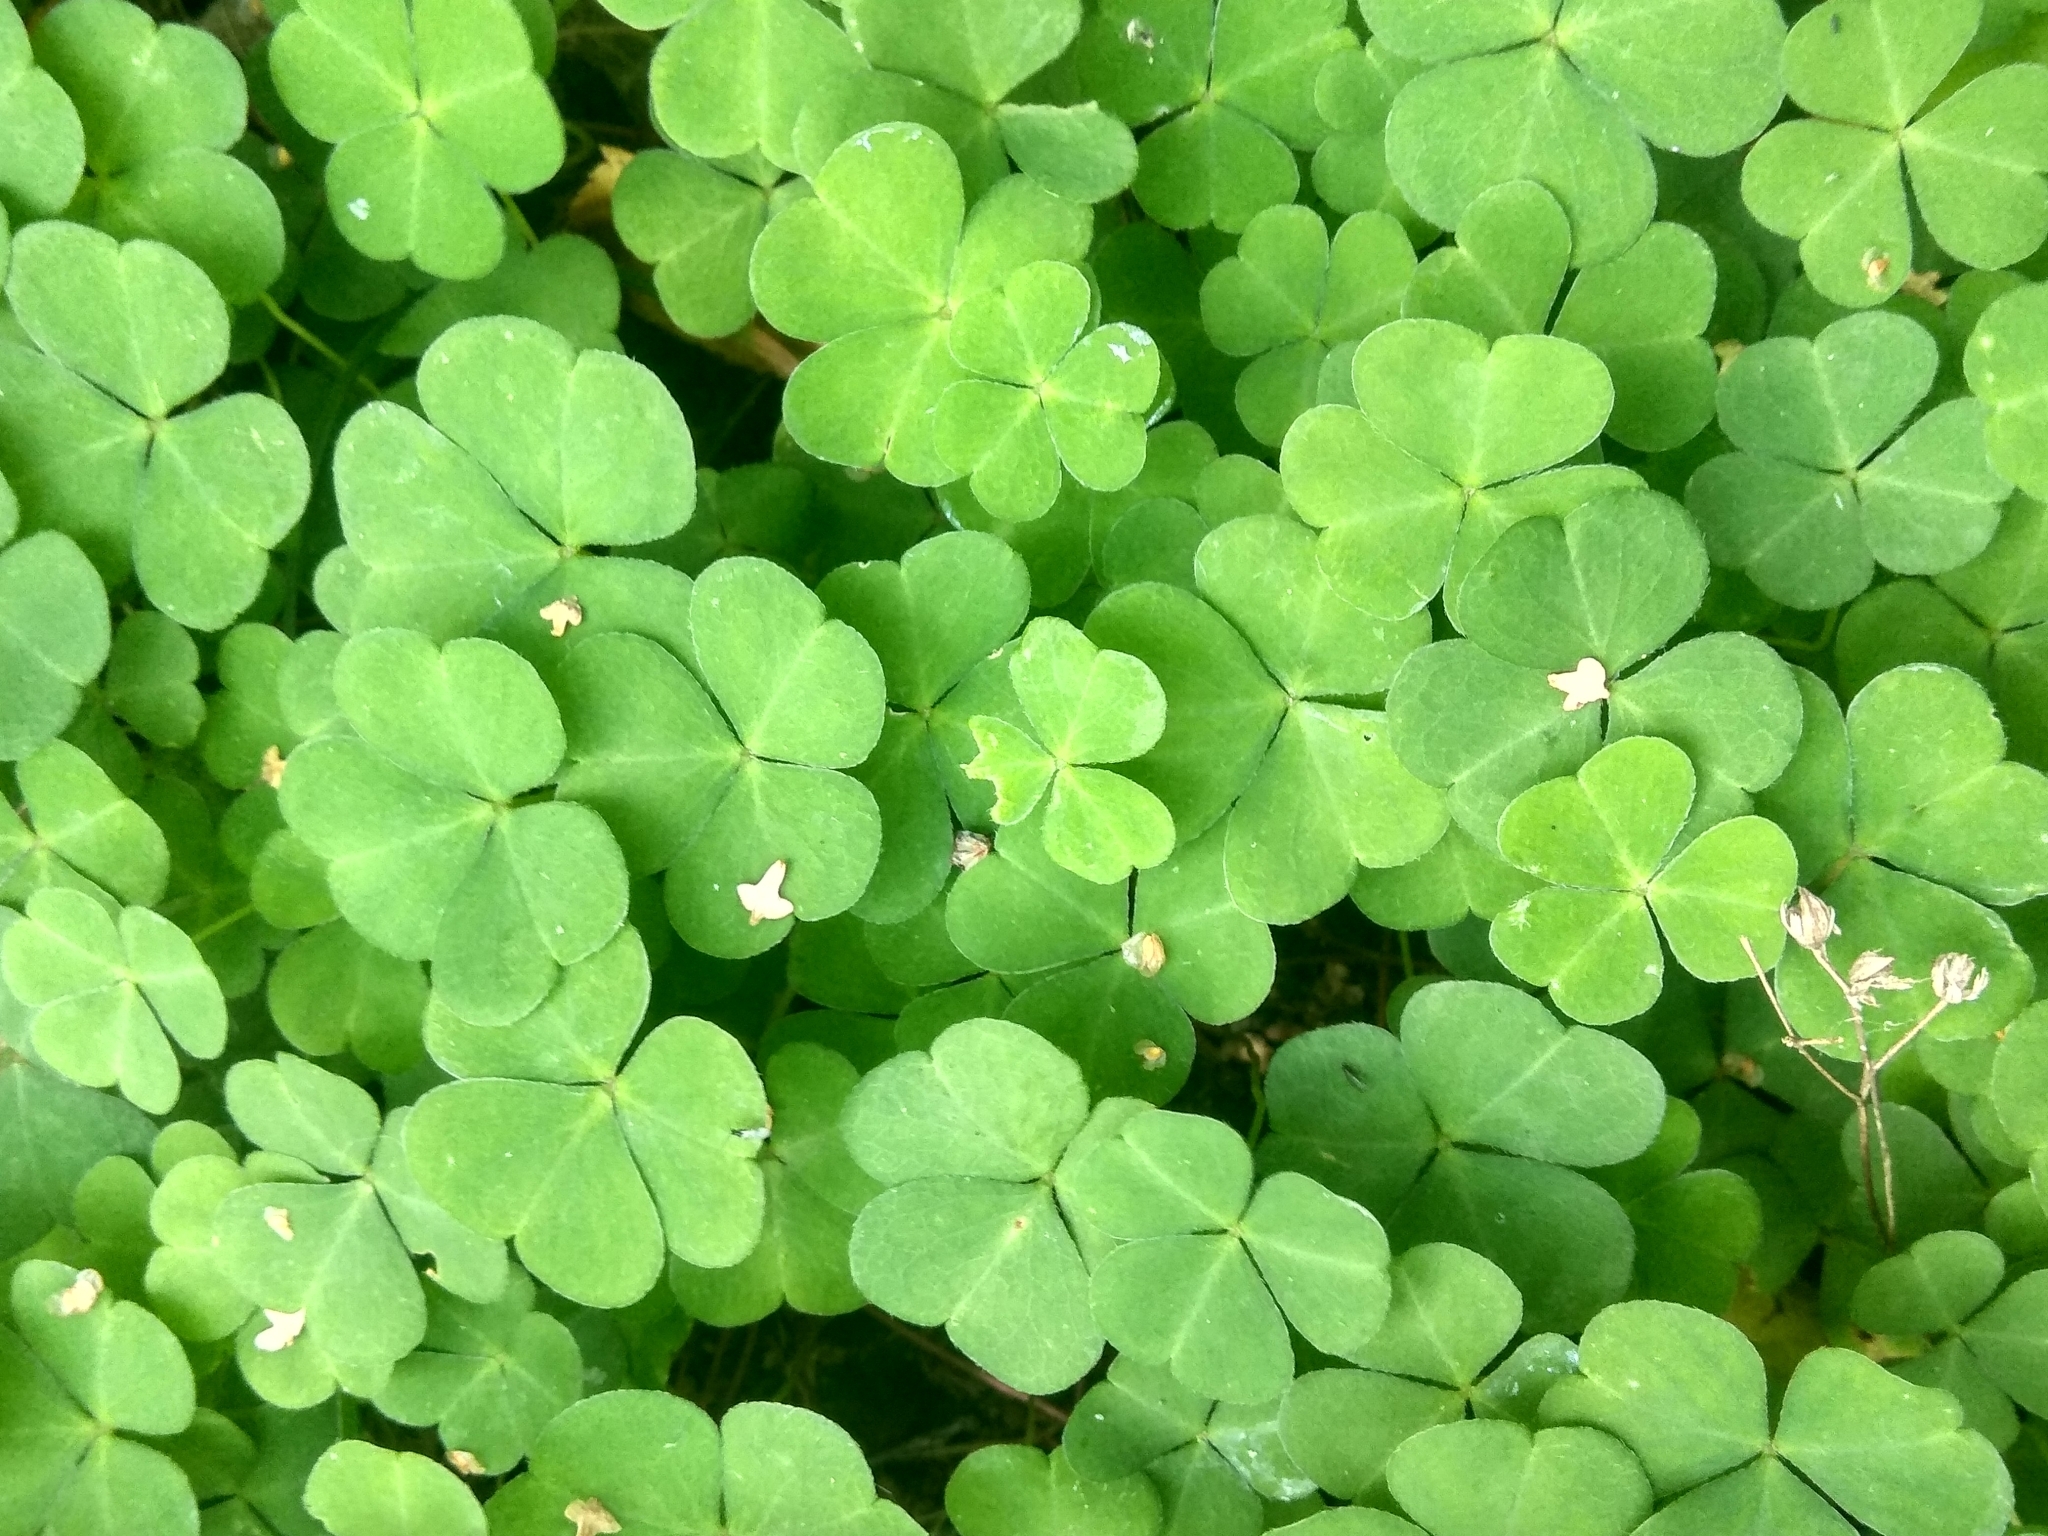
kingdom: Plantae
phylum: Tracheophyta
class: Magnoliopsida
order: Oxalidales
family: Oxalidaceae
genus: Oxalis
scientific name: Oxalis acetosella
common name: Wood-sorrel
